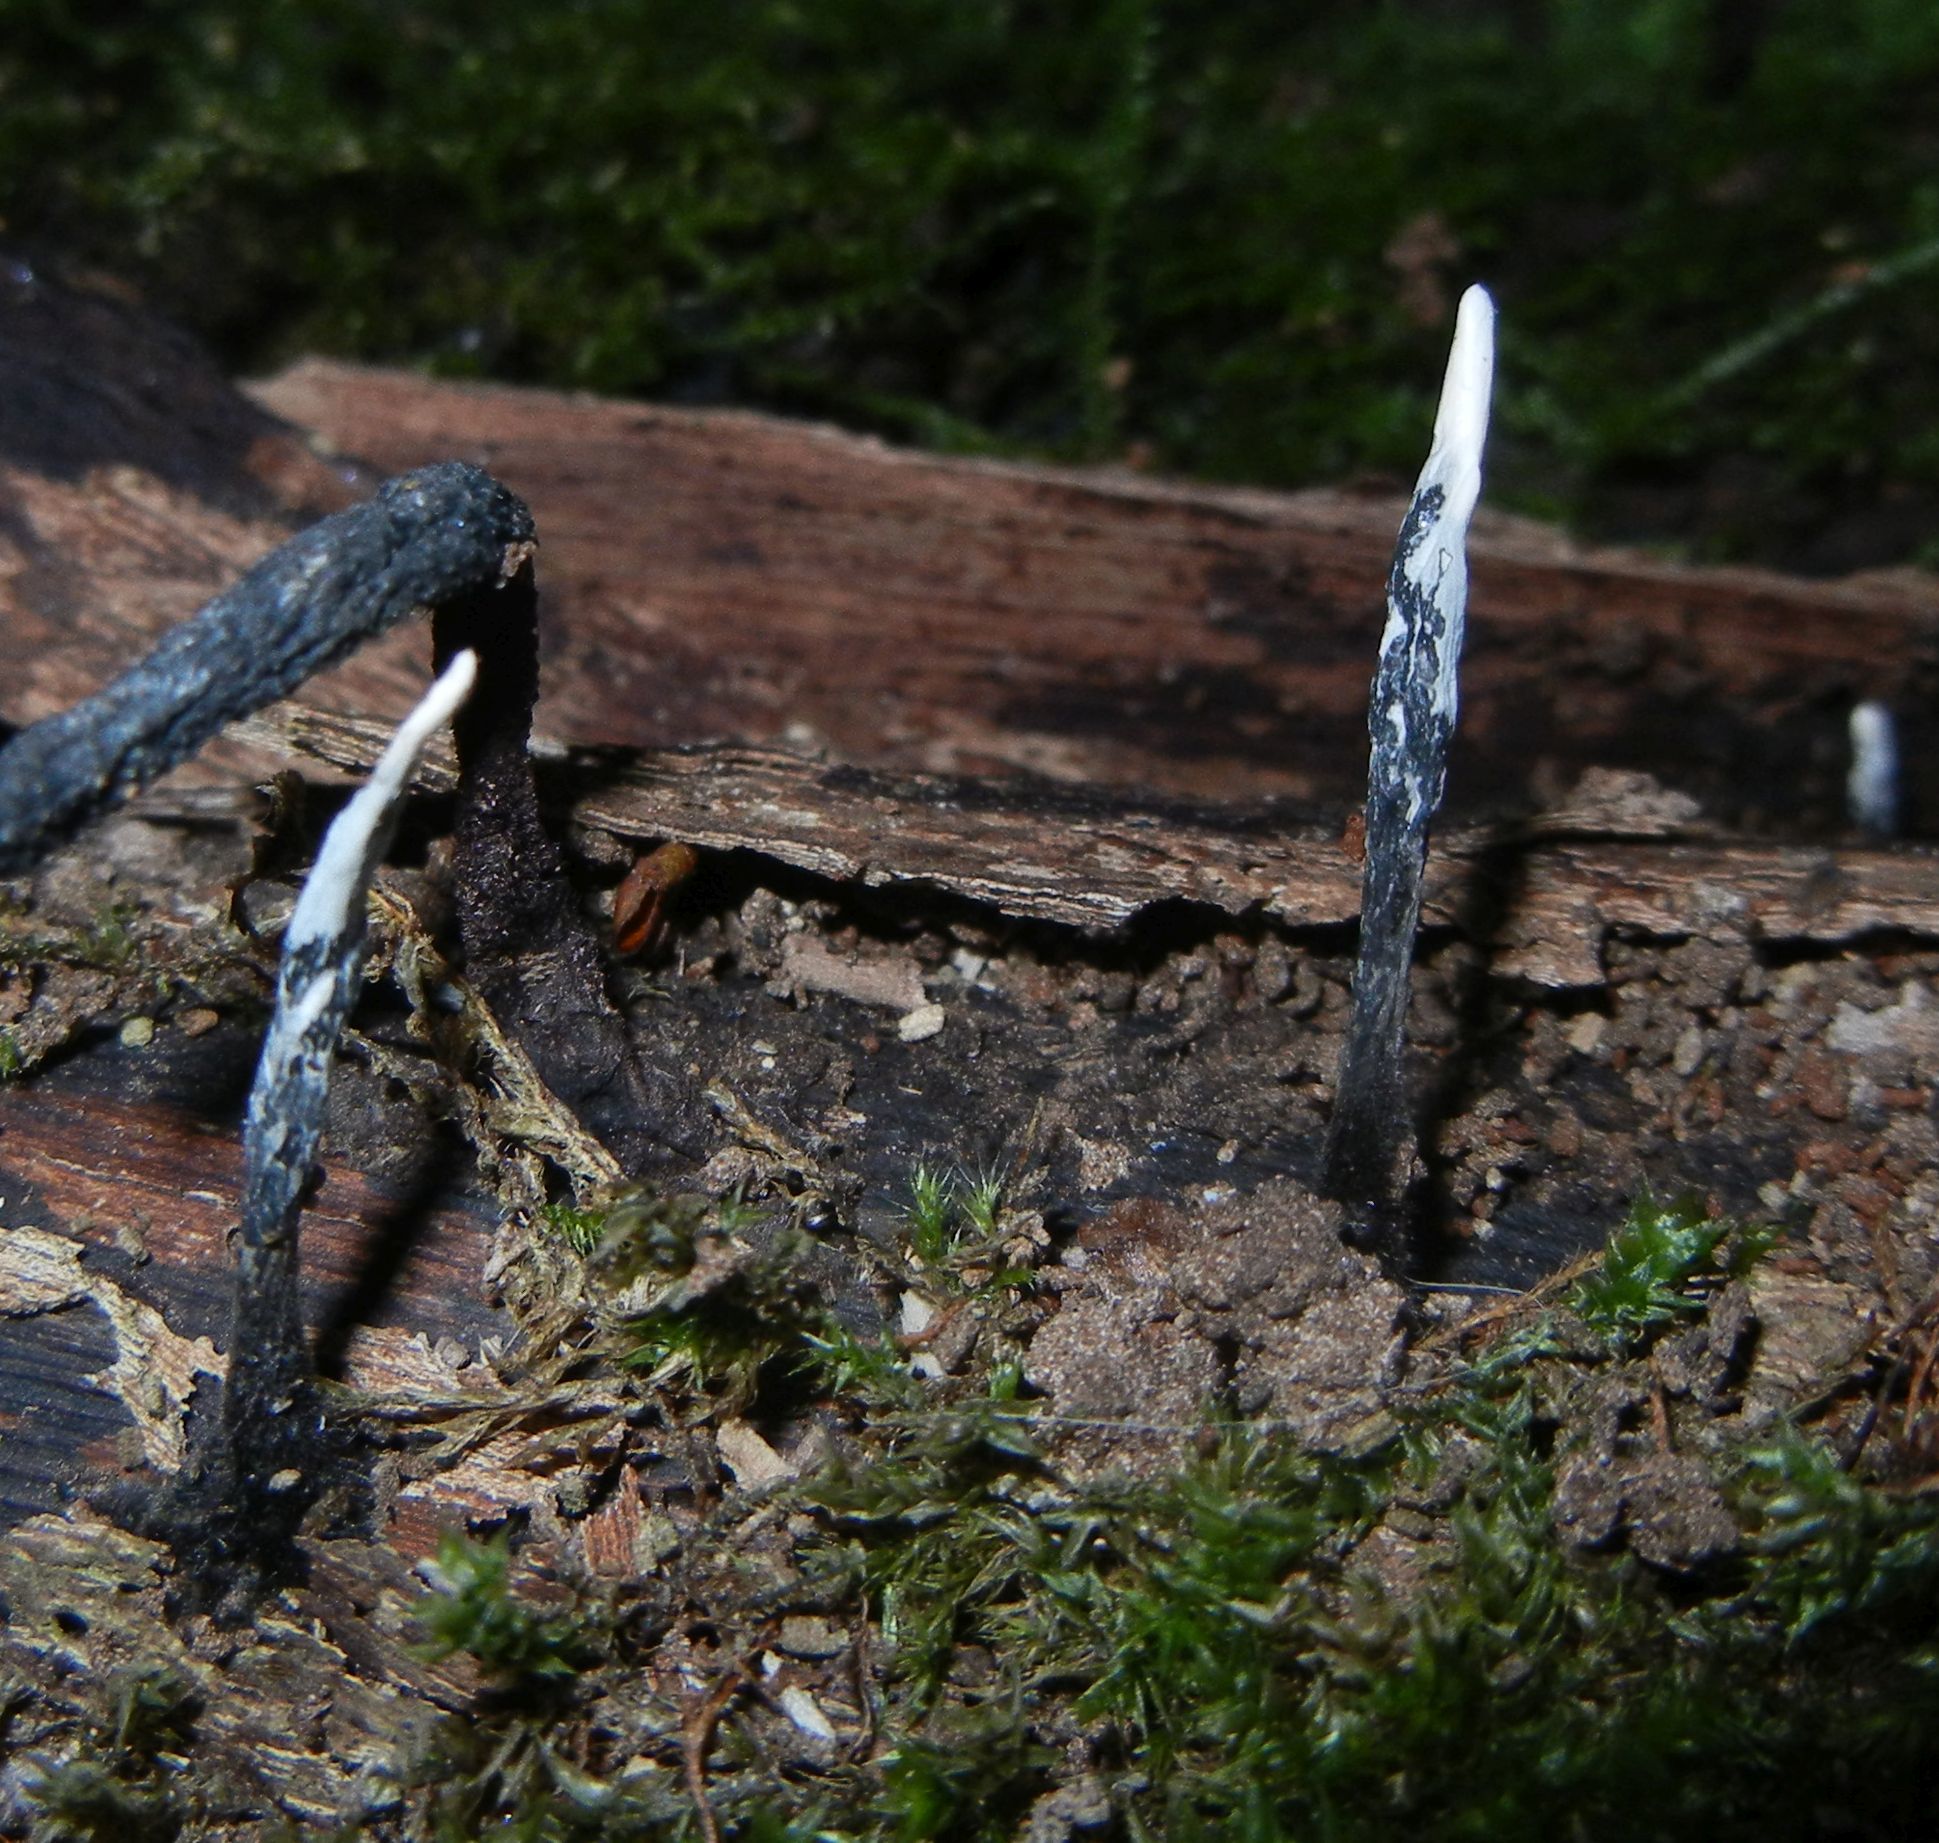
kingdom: Fungi
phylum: Ascomycota
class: Sordariomycetes
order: Xylariales
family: Xylariaceae
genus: Xylaria
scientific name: Xylaria hypoxylon
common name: Candle-snuff fungus
